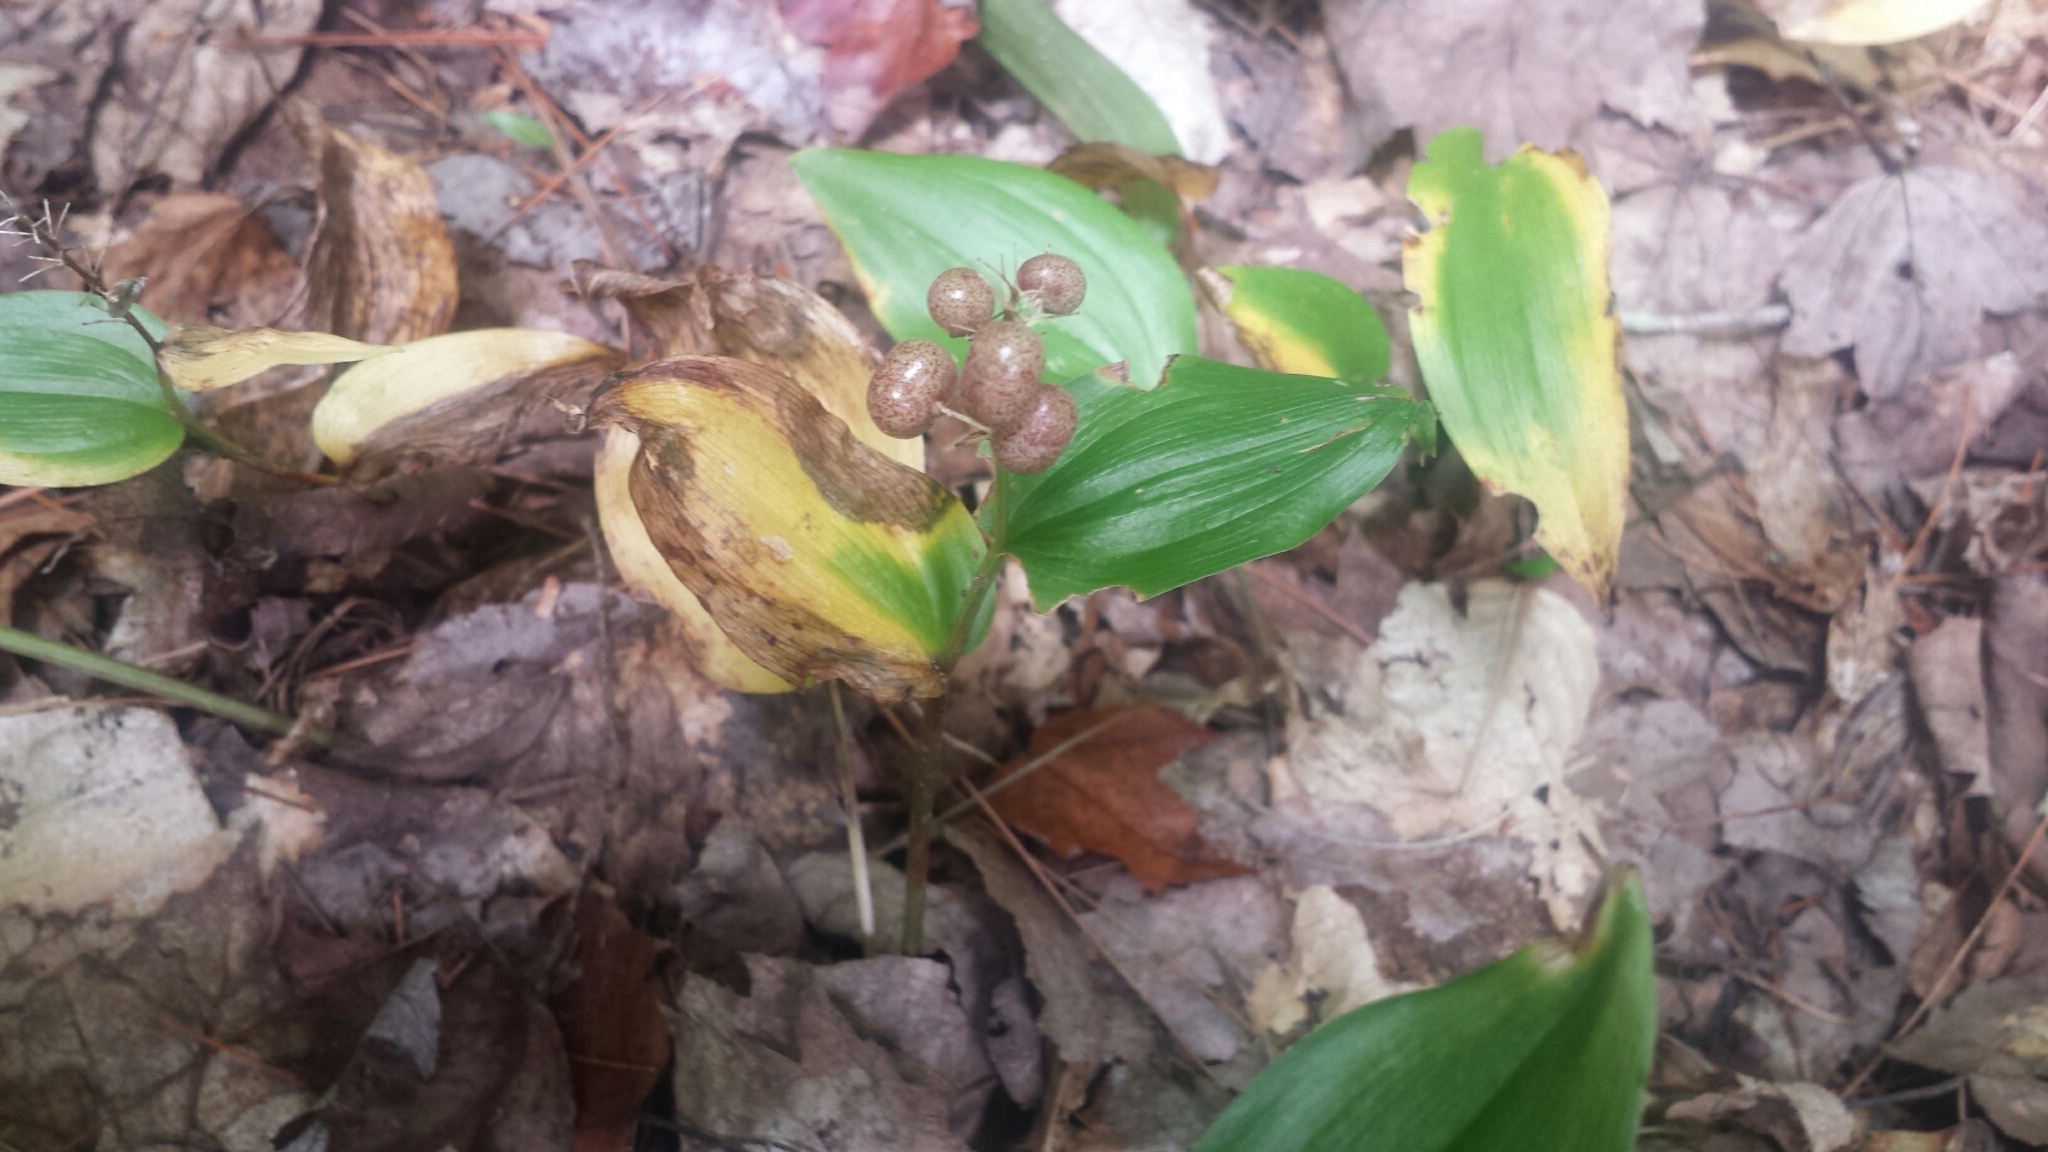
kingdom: Plantae
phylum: Tracheophyta
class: Liliopsida
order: Asparagales
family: Asparagaceae
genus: Maianthemum
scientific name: Maianthemum canadense
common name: False lily-of-the-valley
